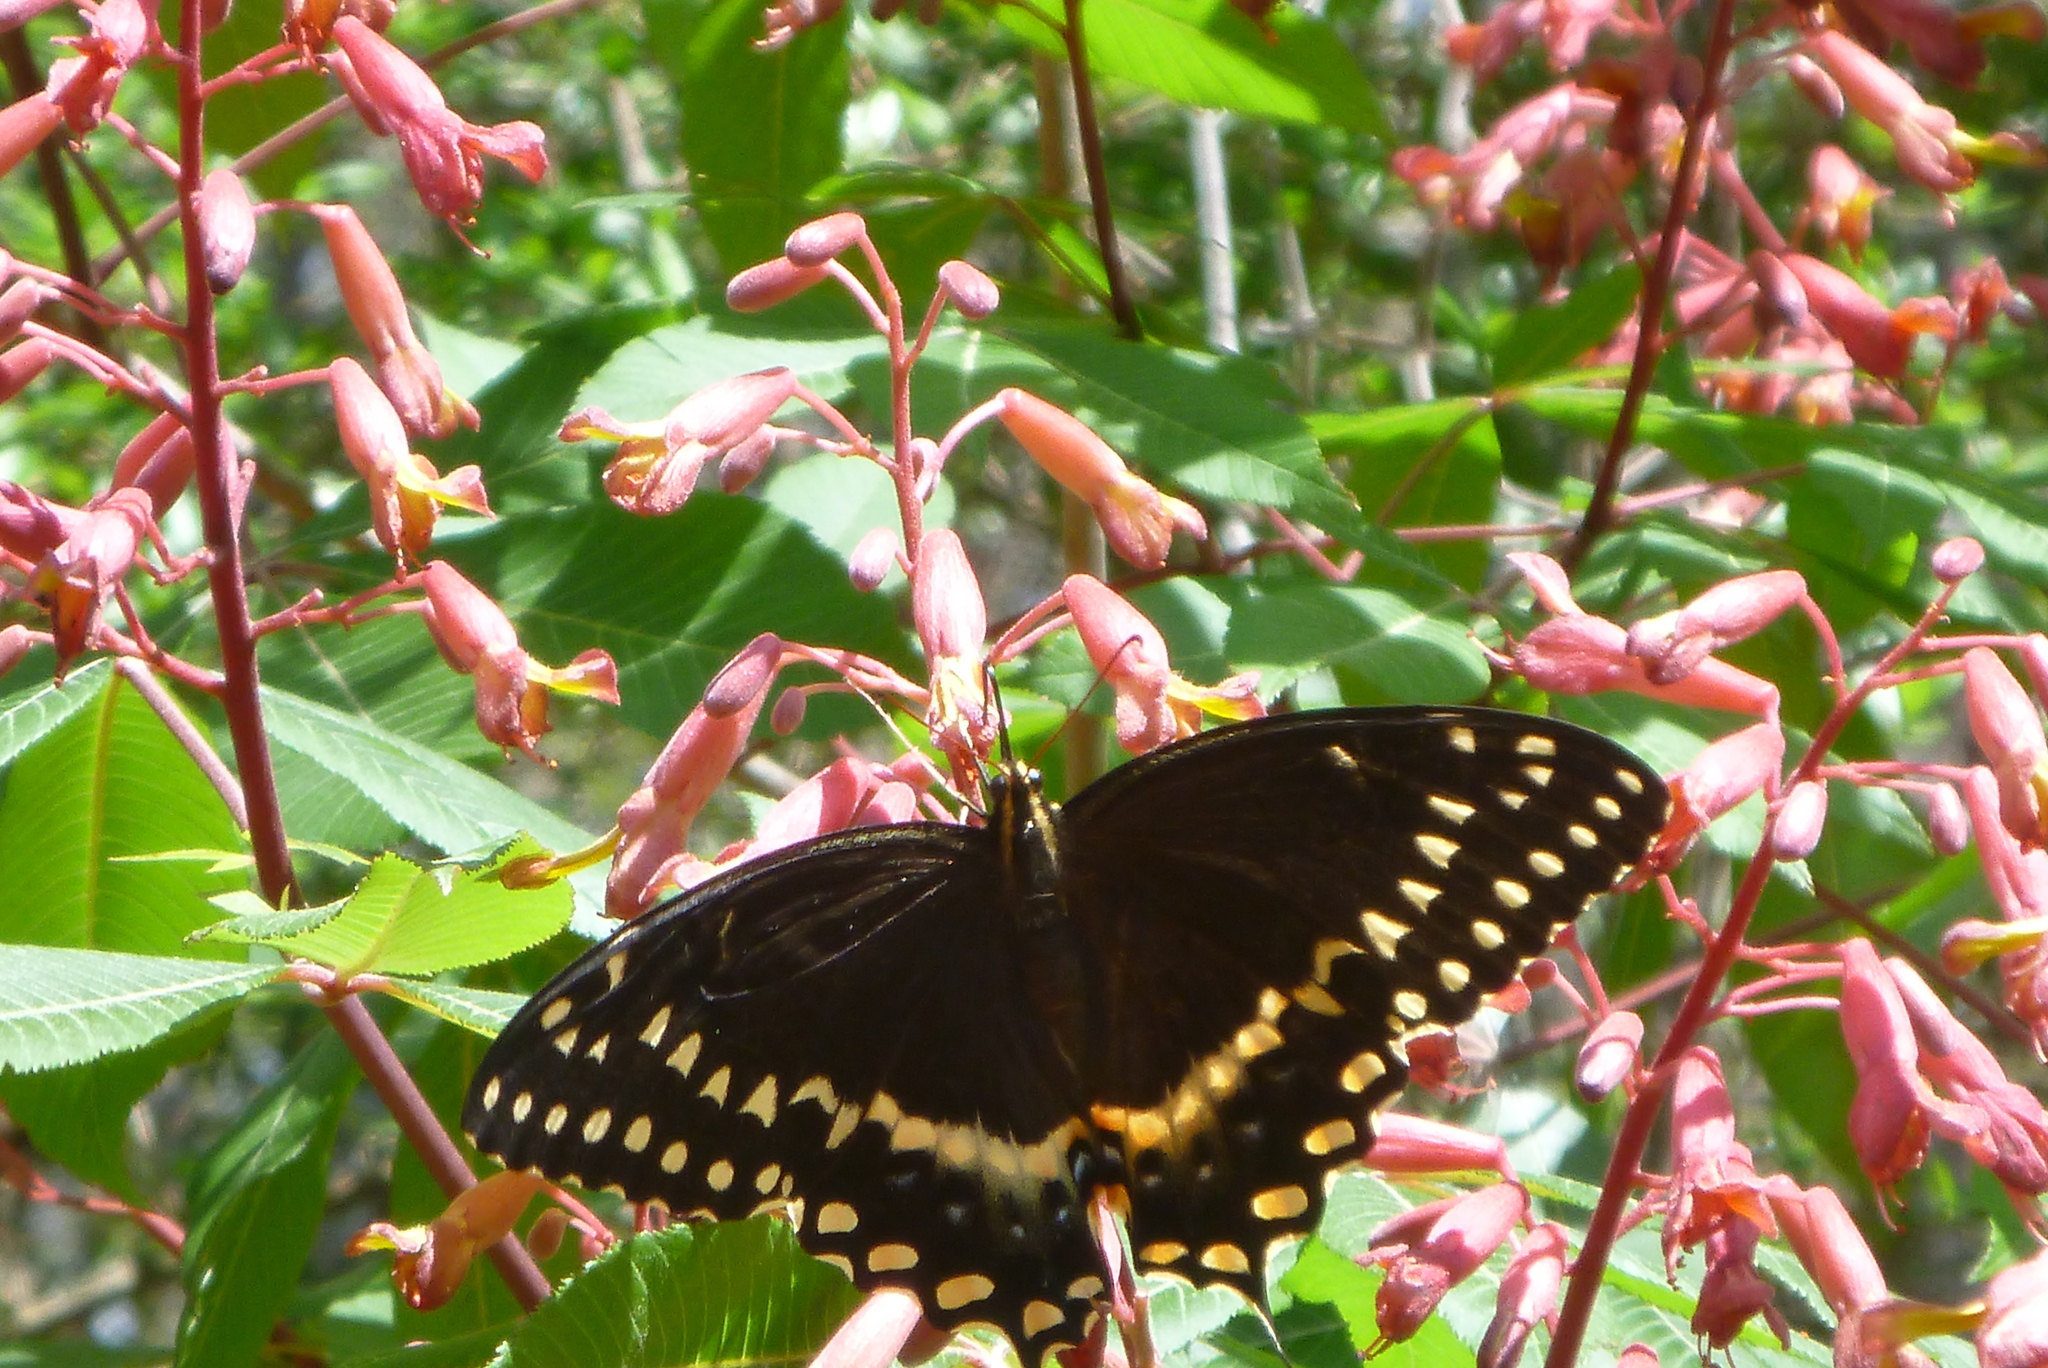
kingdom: Animalia
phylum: Arthropoda
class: Insecta
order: Lepidoptera
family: Papilionidae
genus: Papilio
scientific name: Papilio palamedes
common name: Palamedes swallowtail
